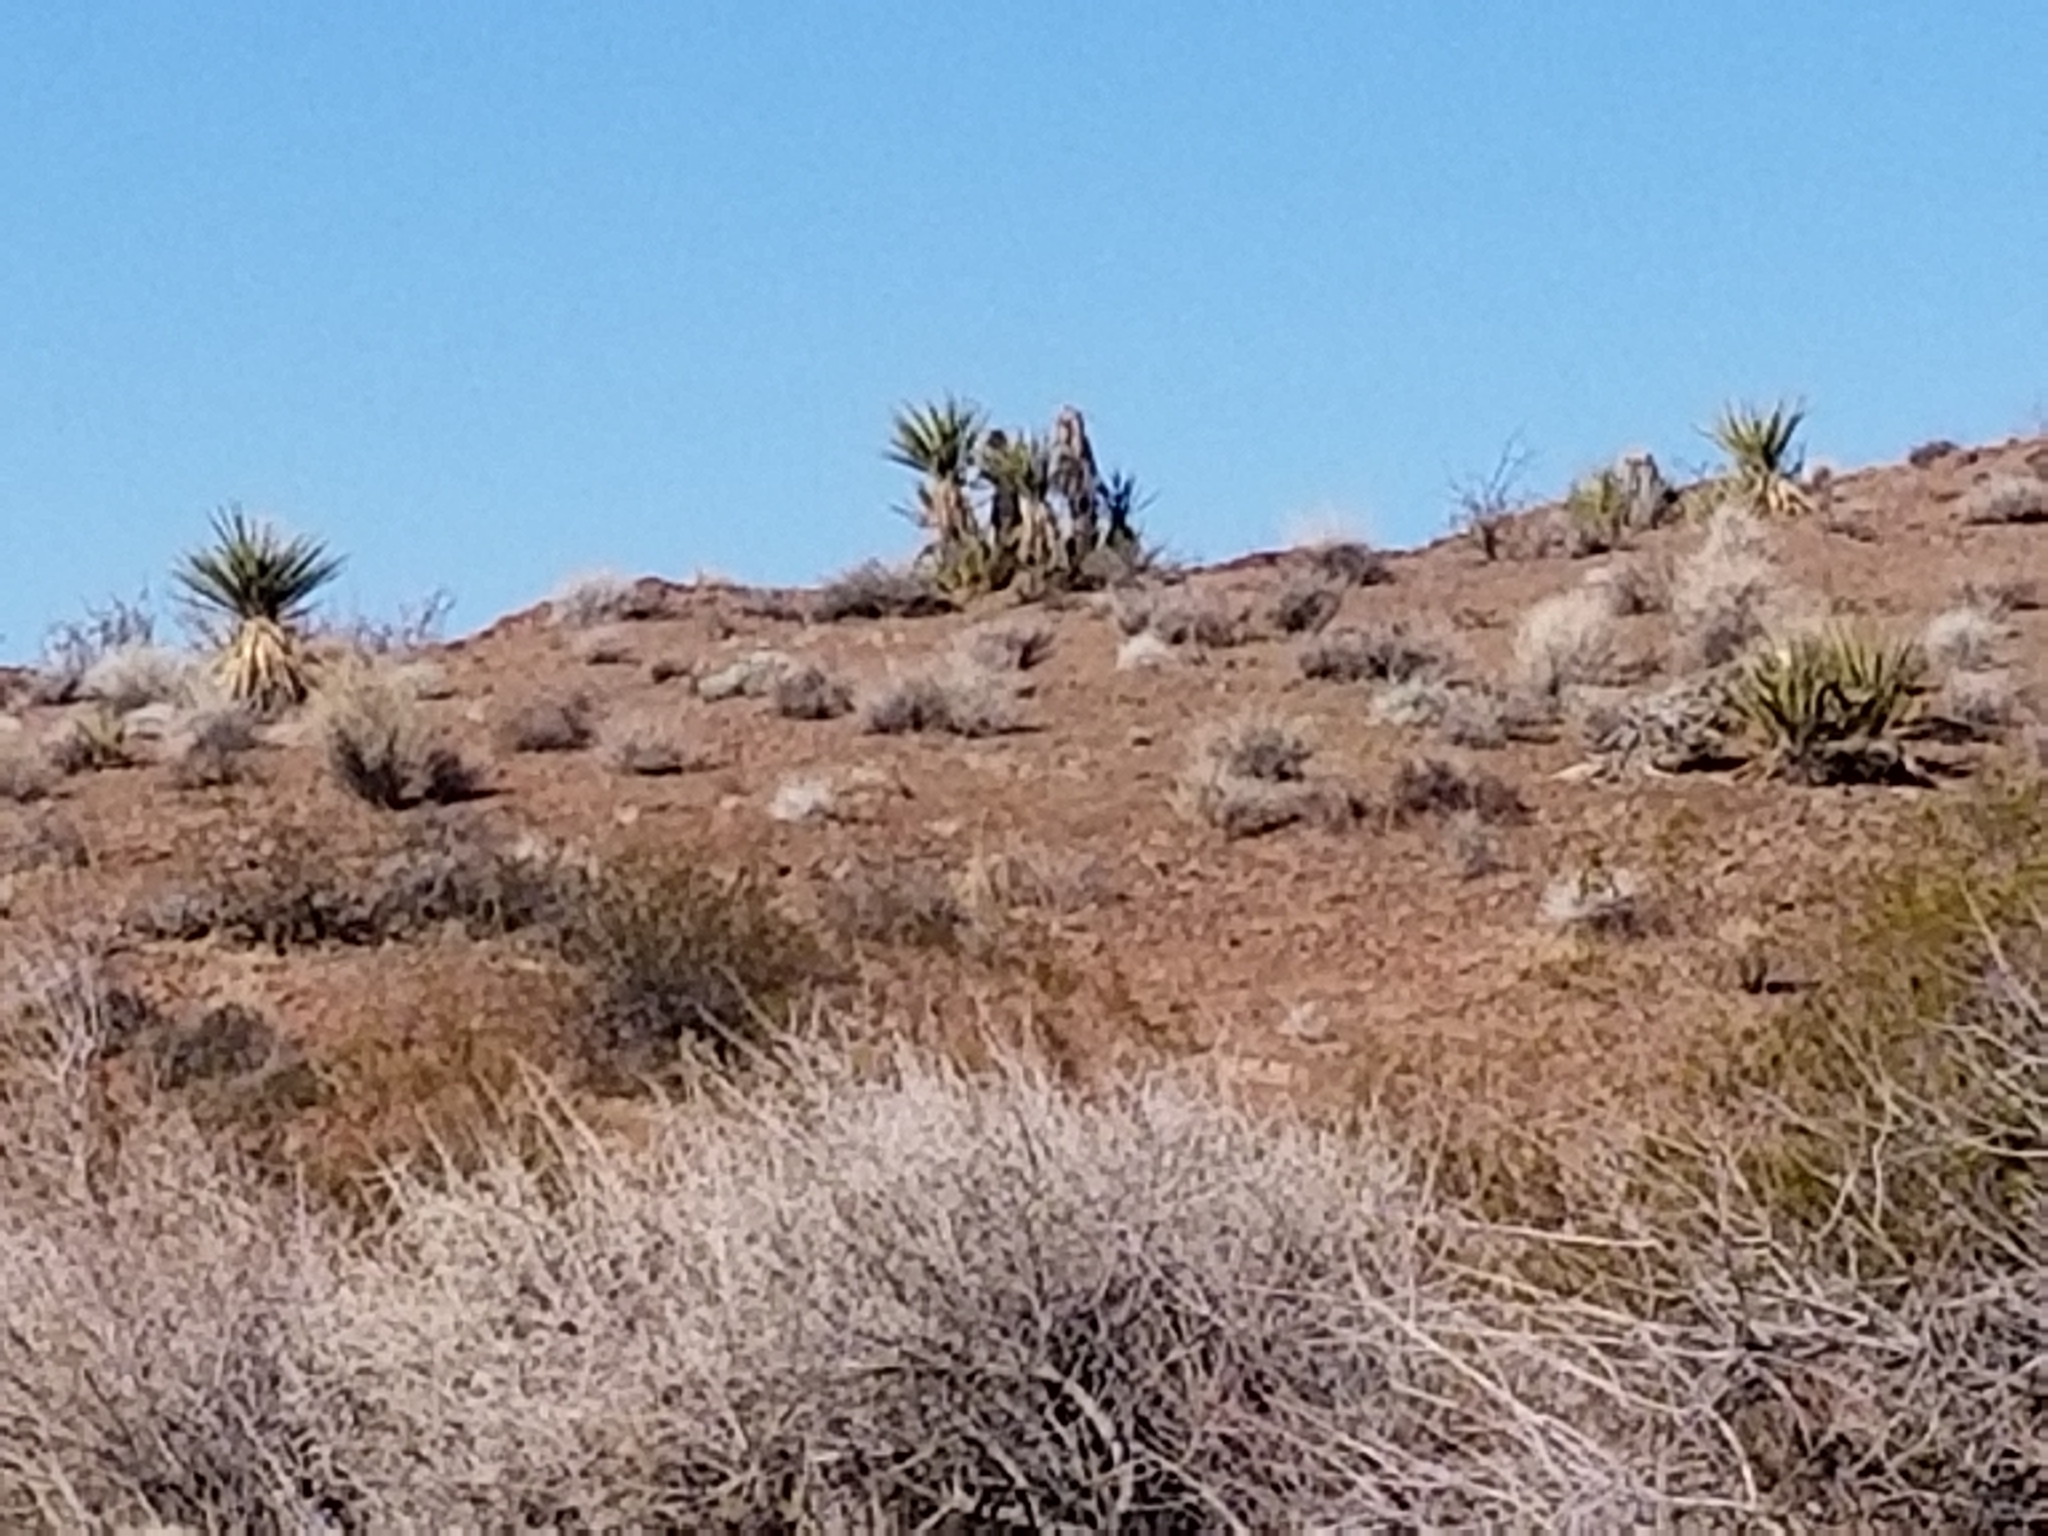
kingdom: Plantae
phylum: Tracheophyta
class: Liliopsida
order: Asparagales
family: Asparagaceae
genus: Yucca
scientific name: Yucca schidigera
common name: Mojave yucca
